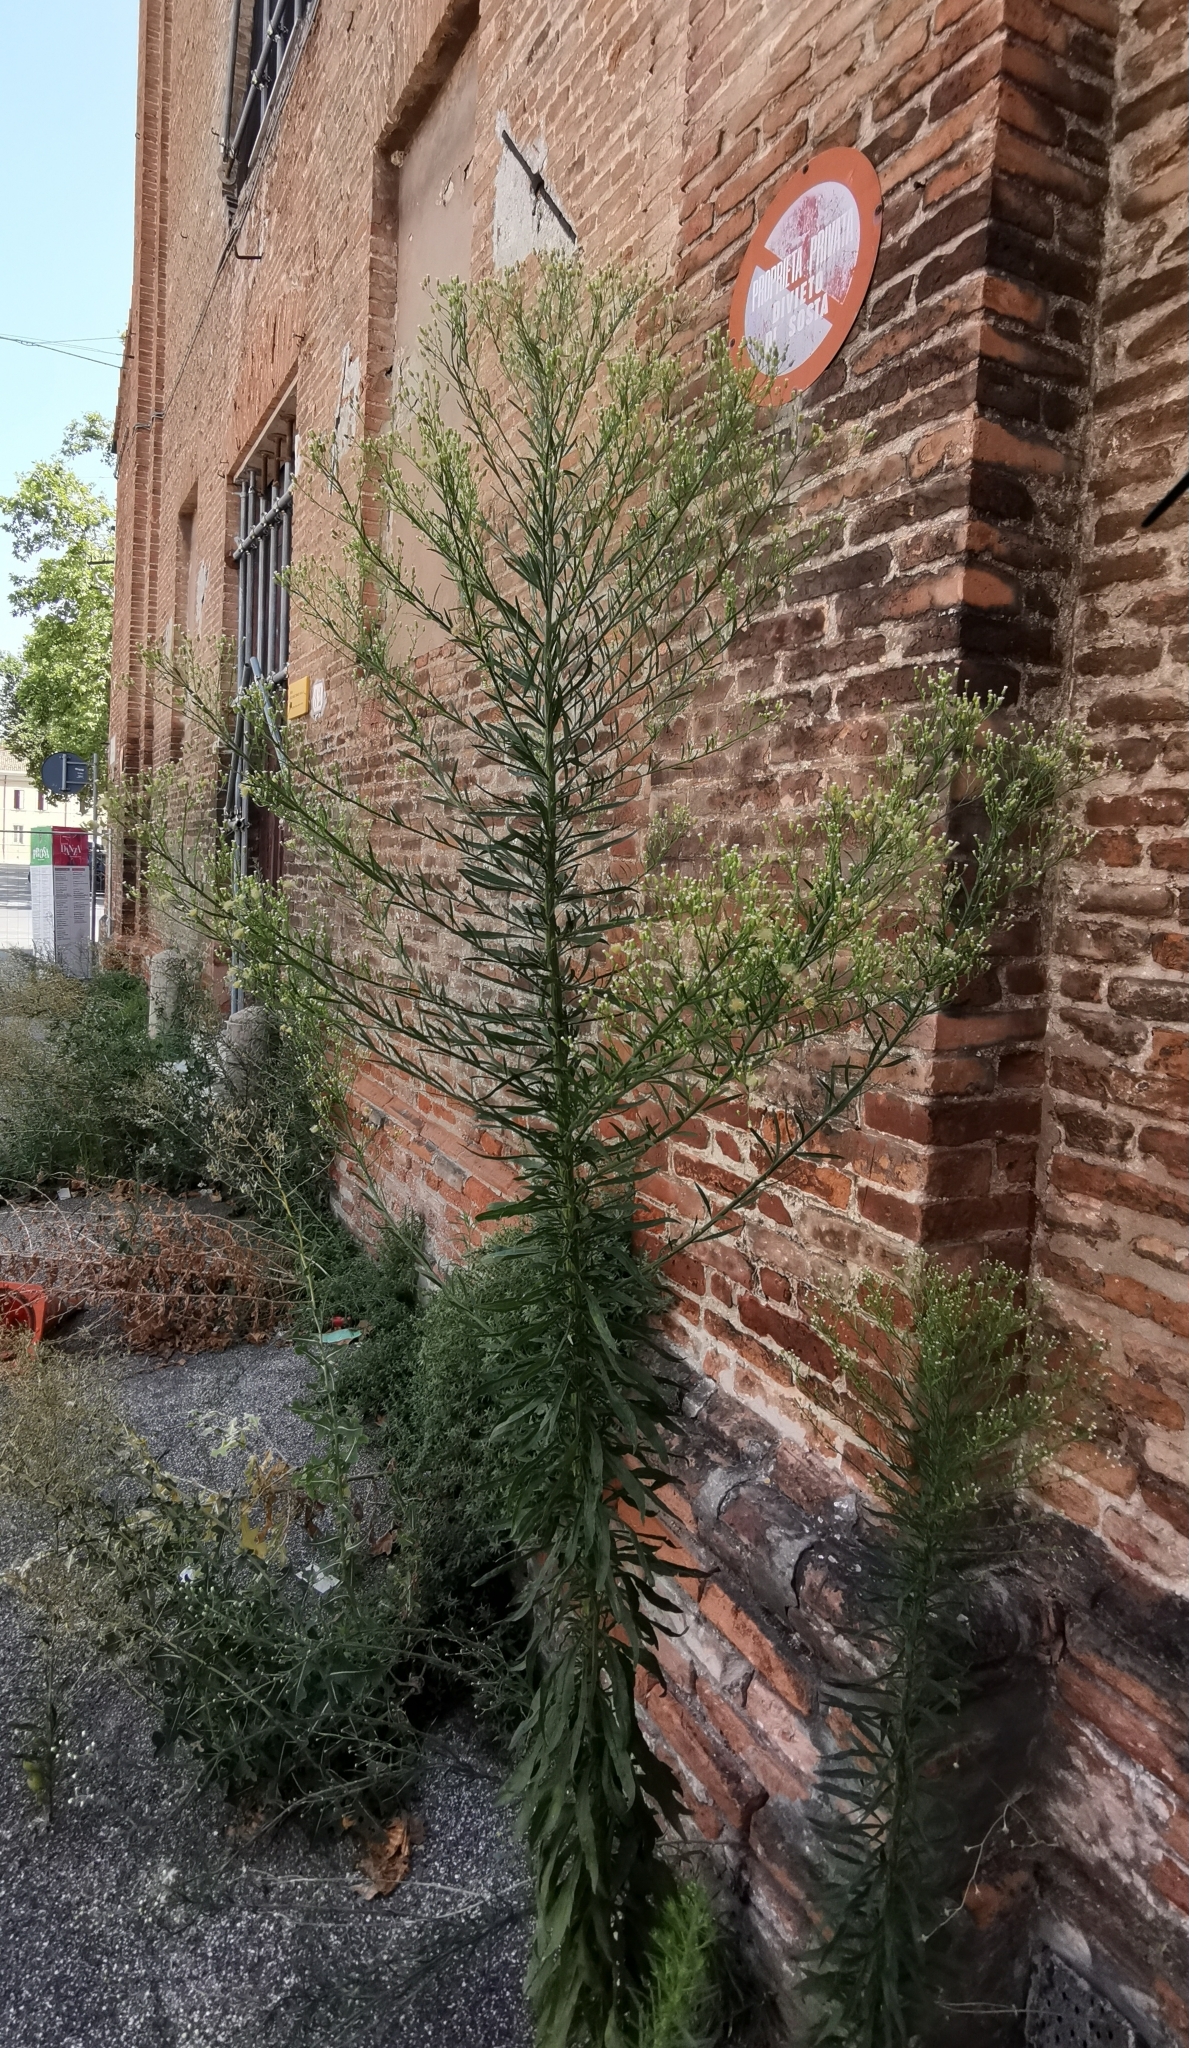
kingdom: Plantae
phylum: Tracheophyta
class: Magnoliopsida
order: Asterales
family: Asteraceae
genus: Erigeron
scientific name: Erigeron canadensis
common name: Canadian fleabane
